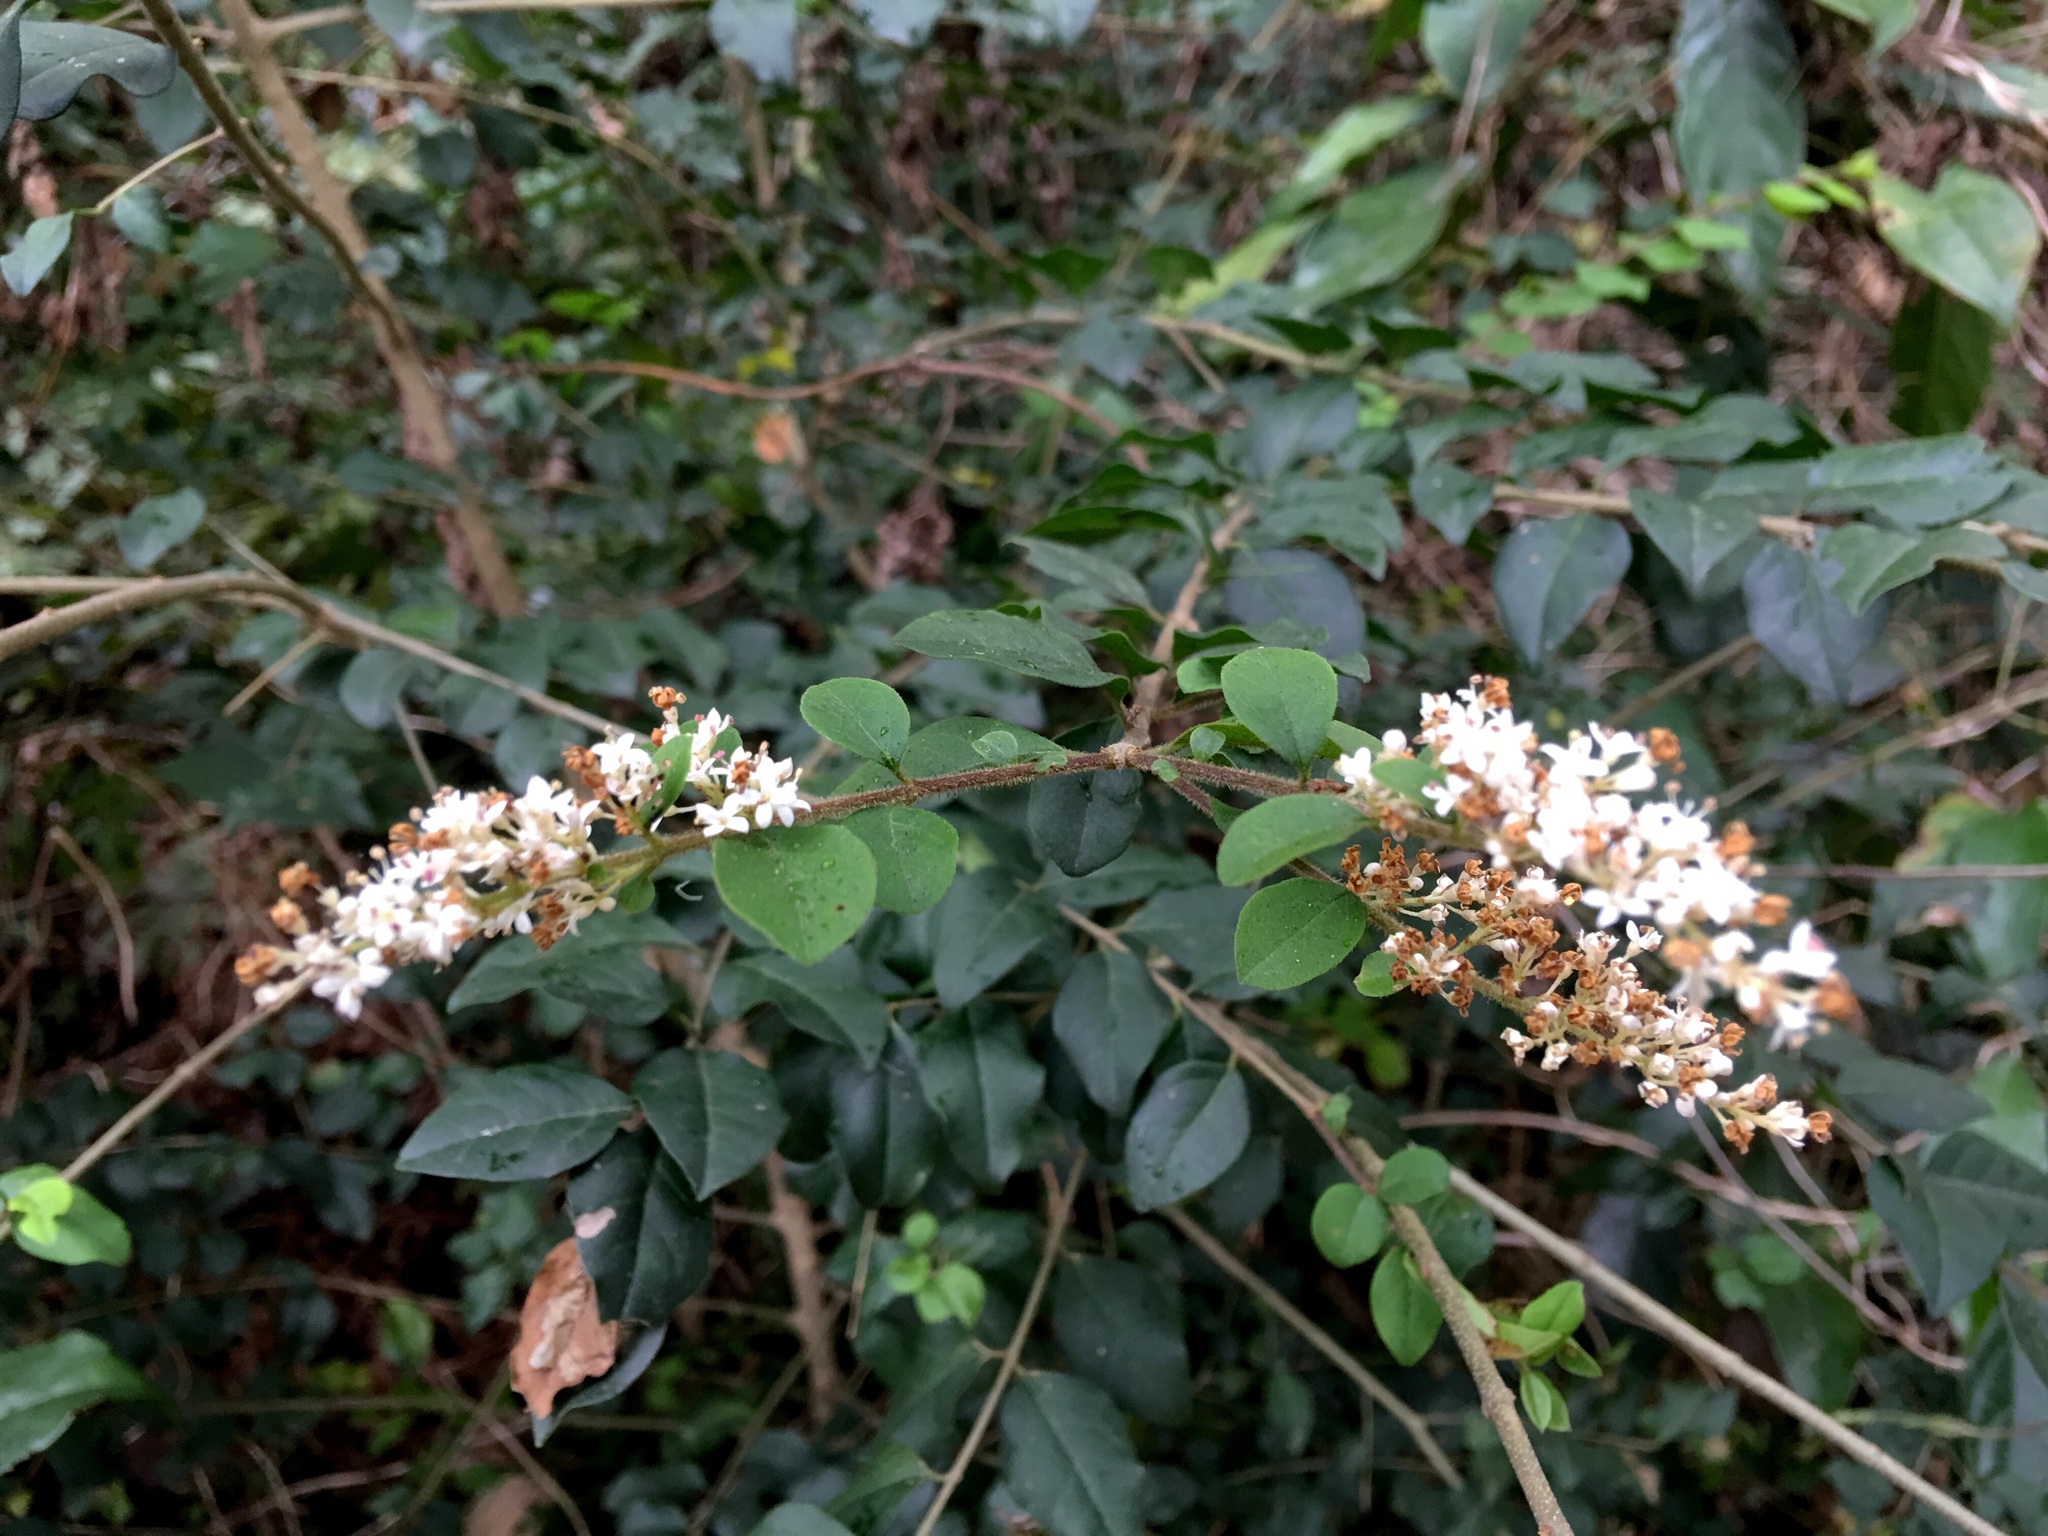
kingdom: Plantae
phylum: Tracheophyta
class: Magnoliopsida
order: Lamiales
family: Oleaceae
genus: Ligustrum
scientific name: Ligustrum sinense
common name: Chinese privet
